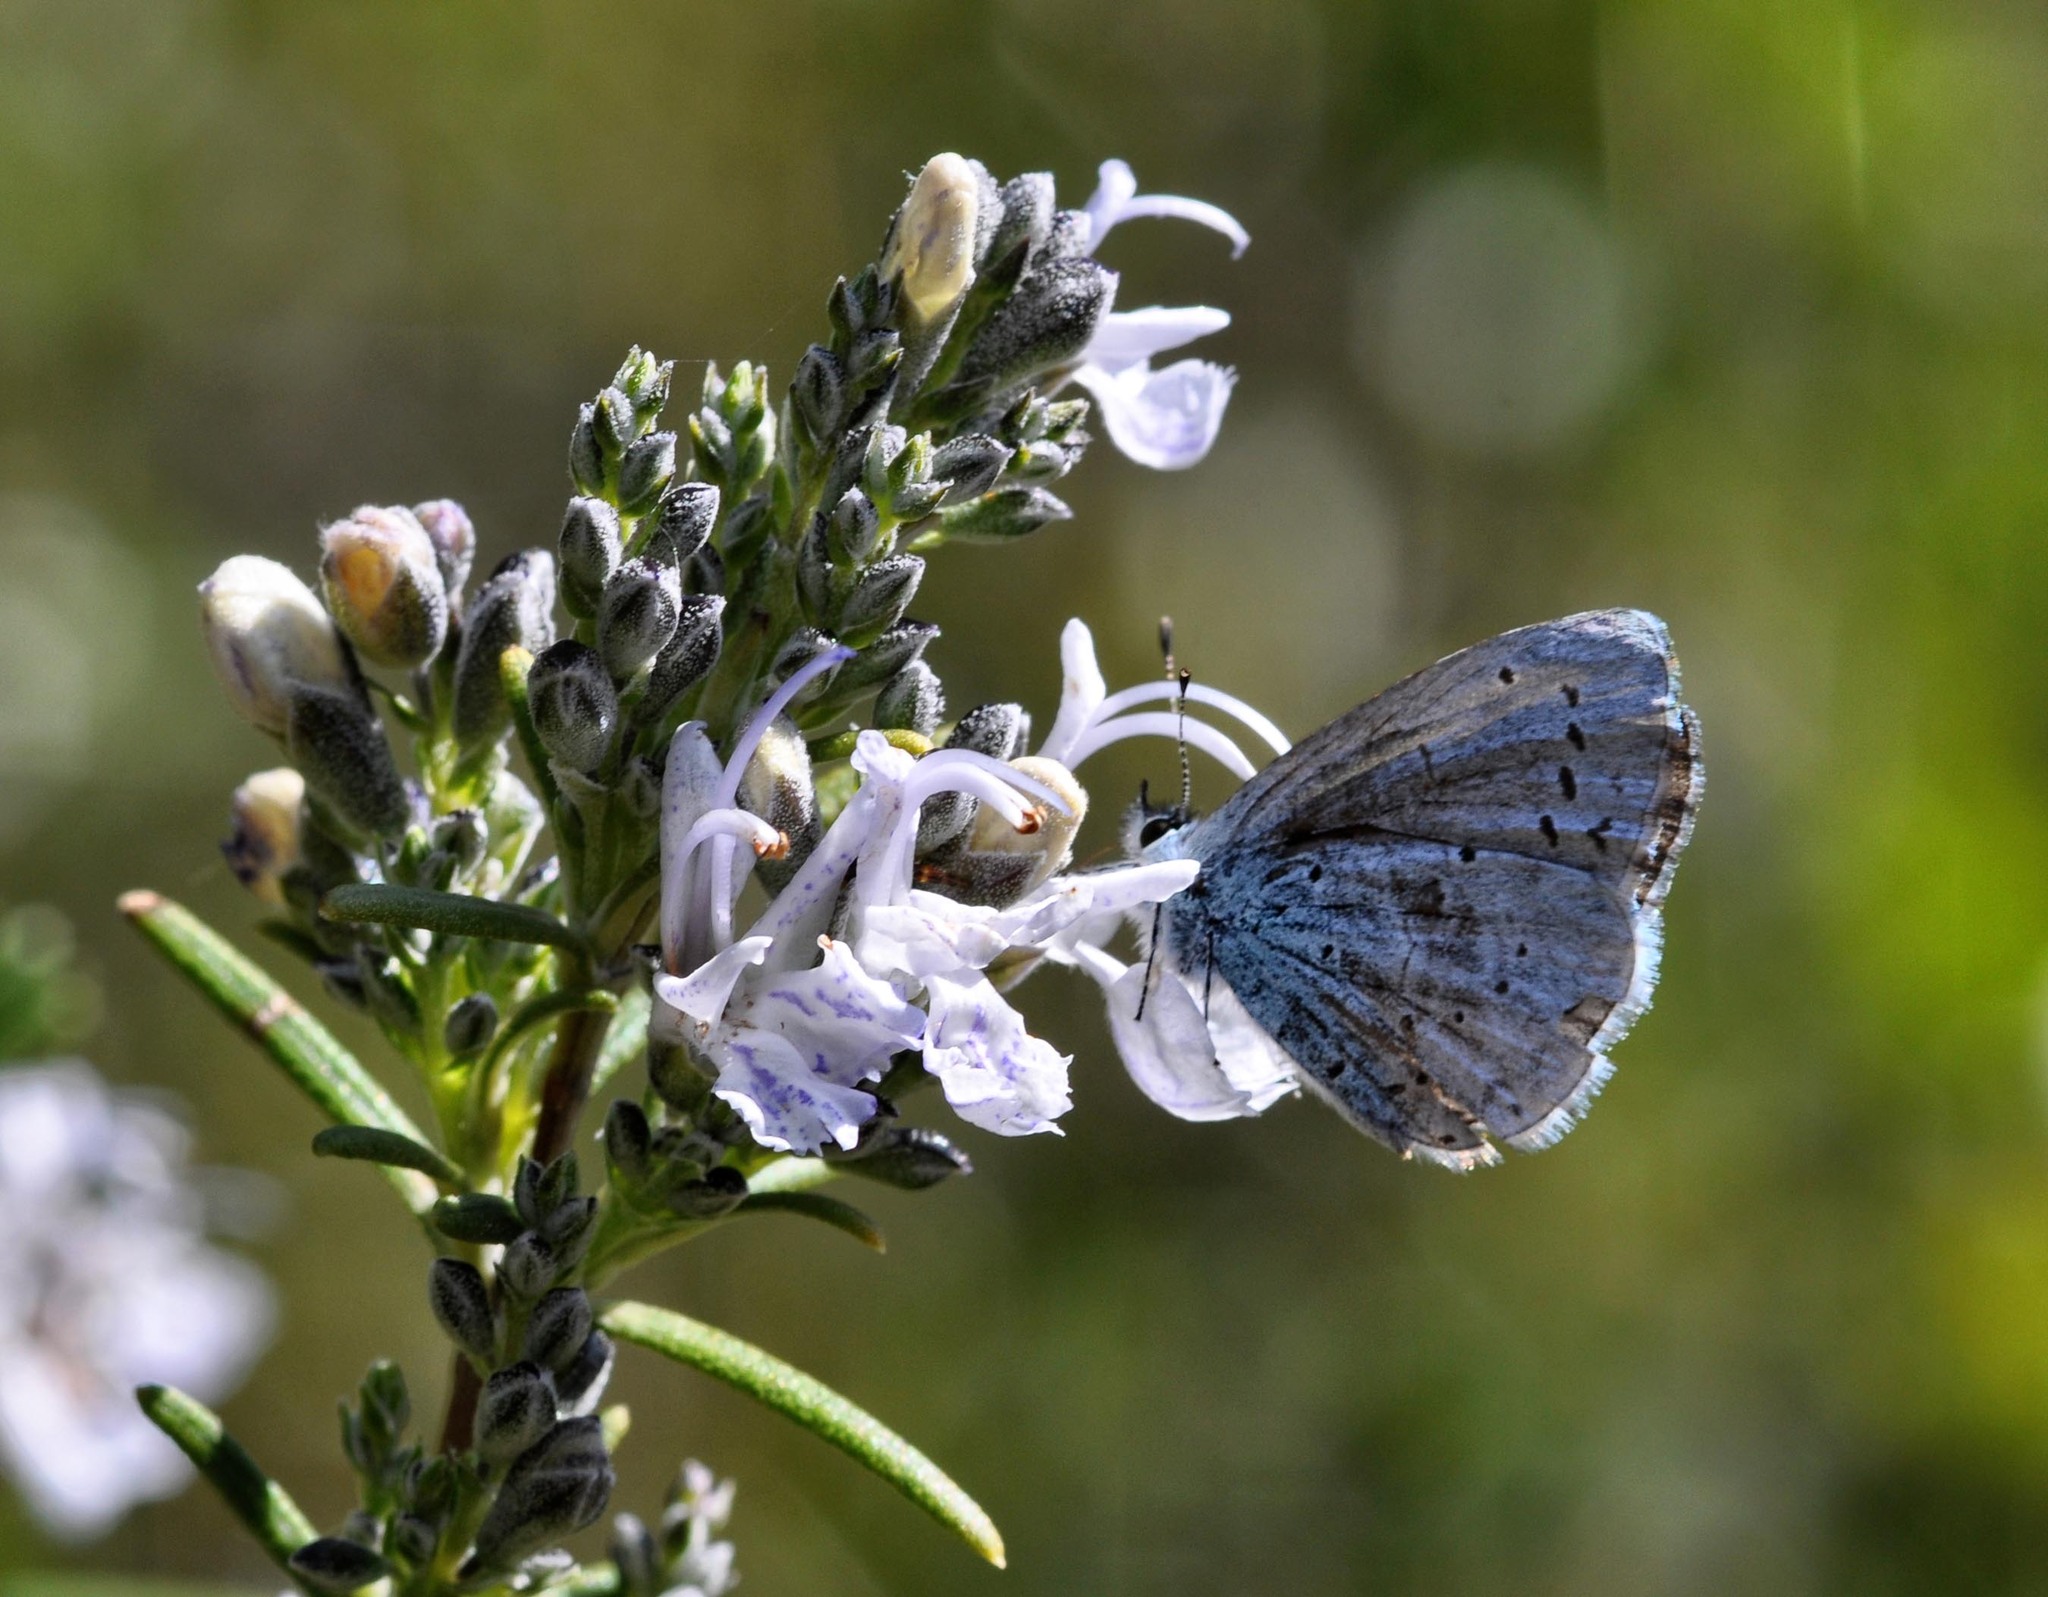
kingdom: Animalia
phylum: Arthropoda
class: Insecta
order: Lepidoptera
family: Lycaenidae
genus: Celastrina
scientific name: Celastrina argiolus
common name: Holly blue
